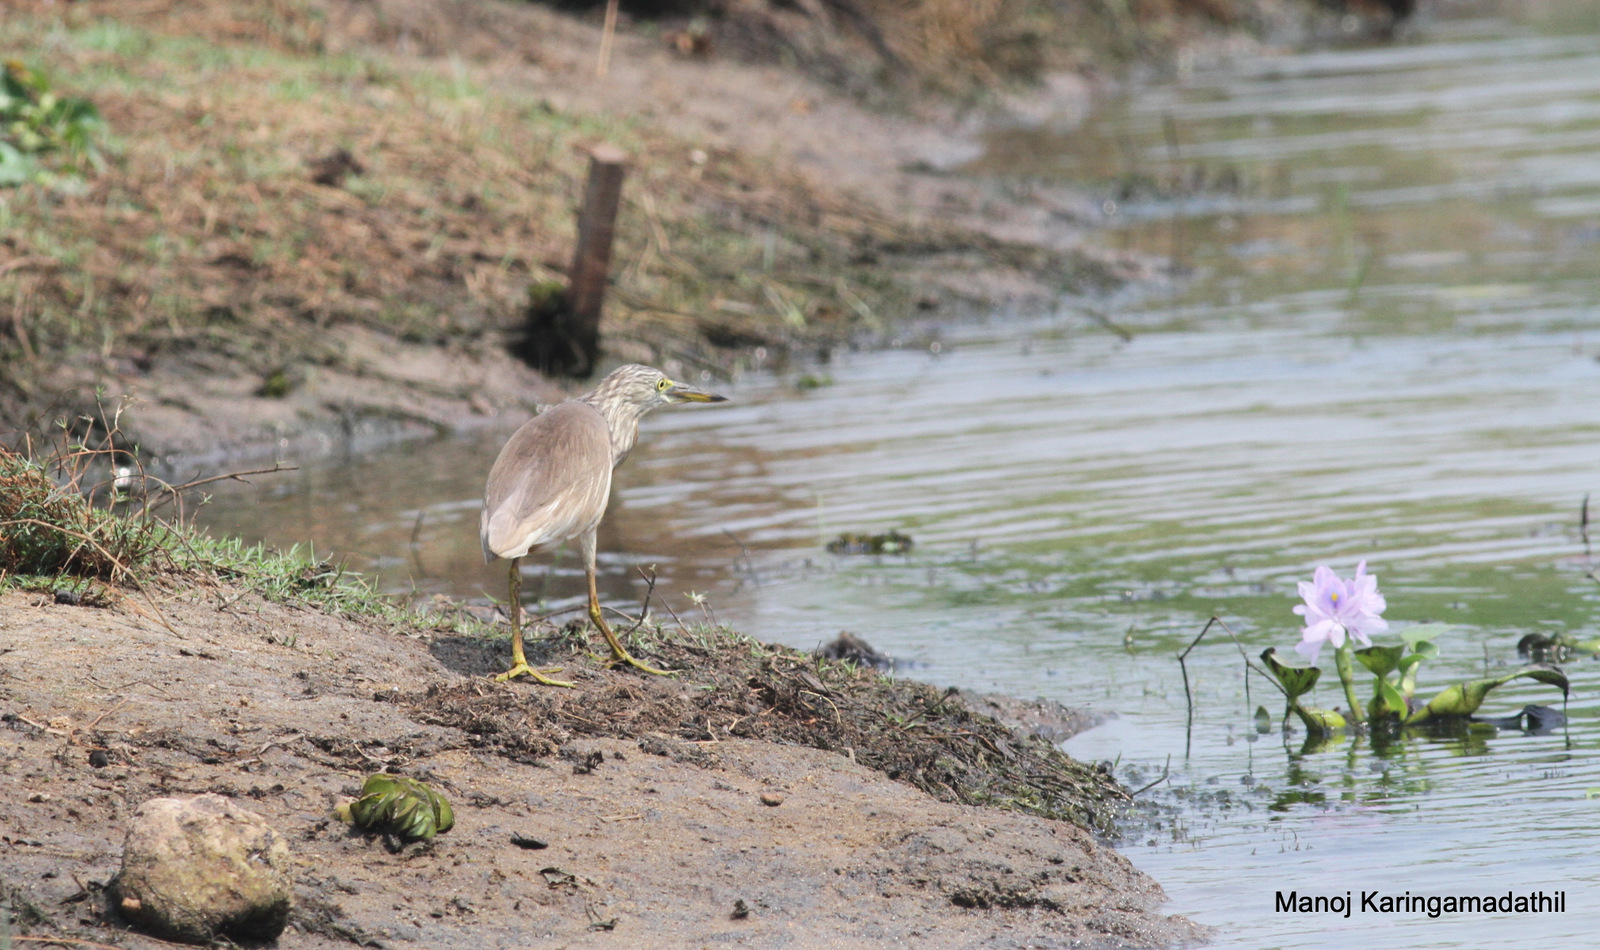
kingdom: Animalia
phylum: Chordata
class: Aves
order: Pelecaniformes
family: Ardeidae
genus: Ardeola
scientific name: Ardeola grayii
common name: Indian pond heron
